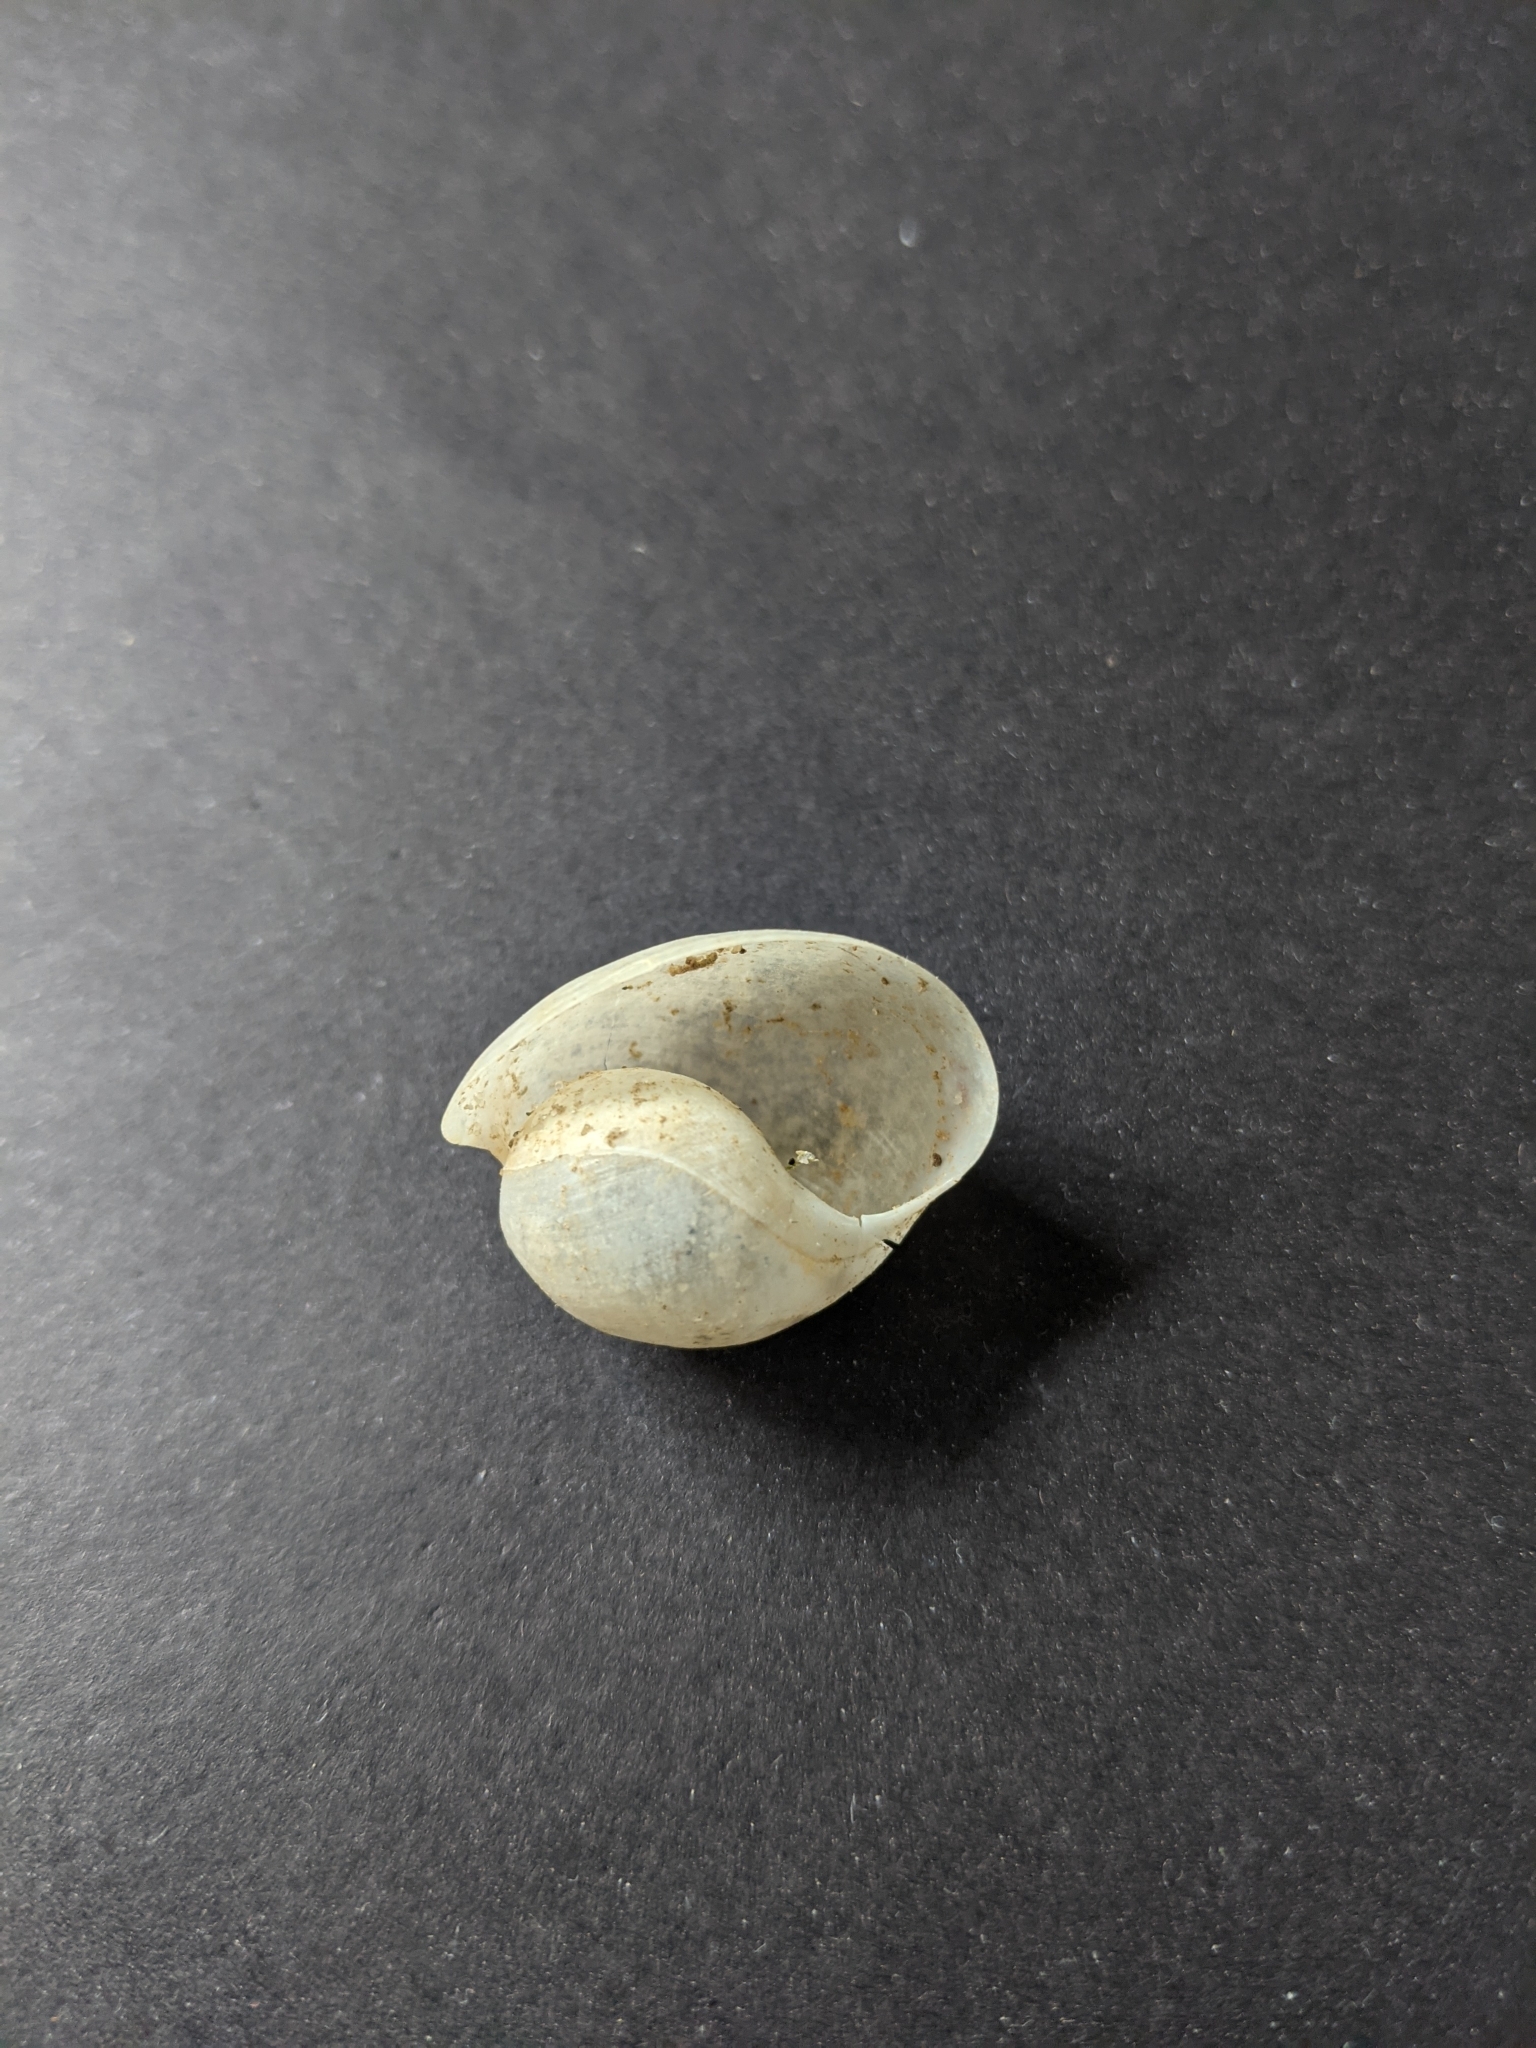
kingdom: Animalia
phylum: Mollusca
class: Gastropoda
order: Cephalaspidea
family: Haminoeidae
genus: Papawera
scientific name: Papawera zelandiae
